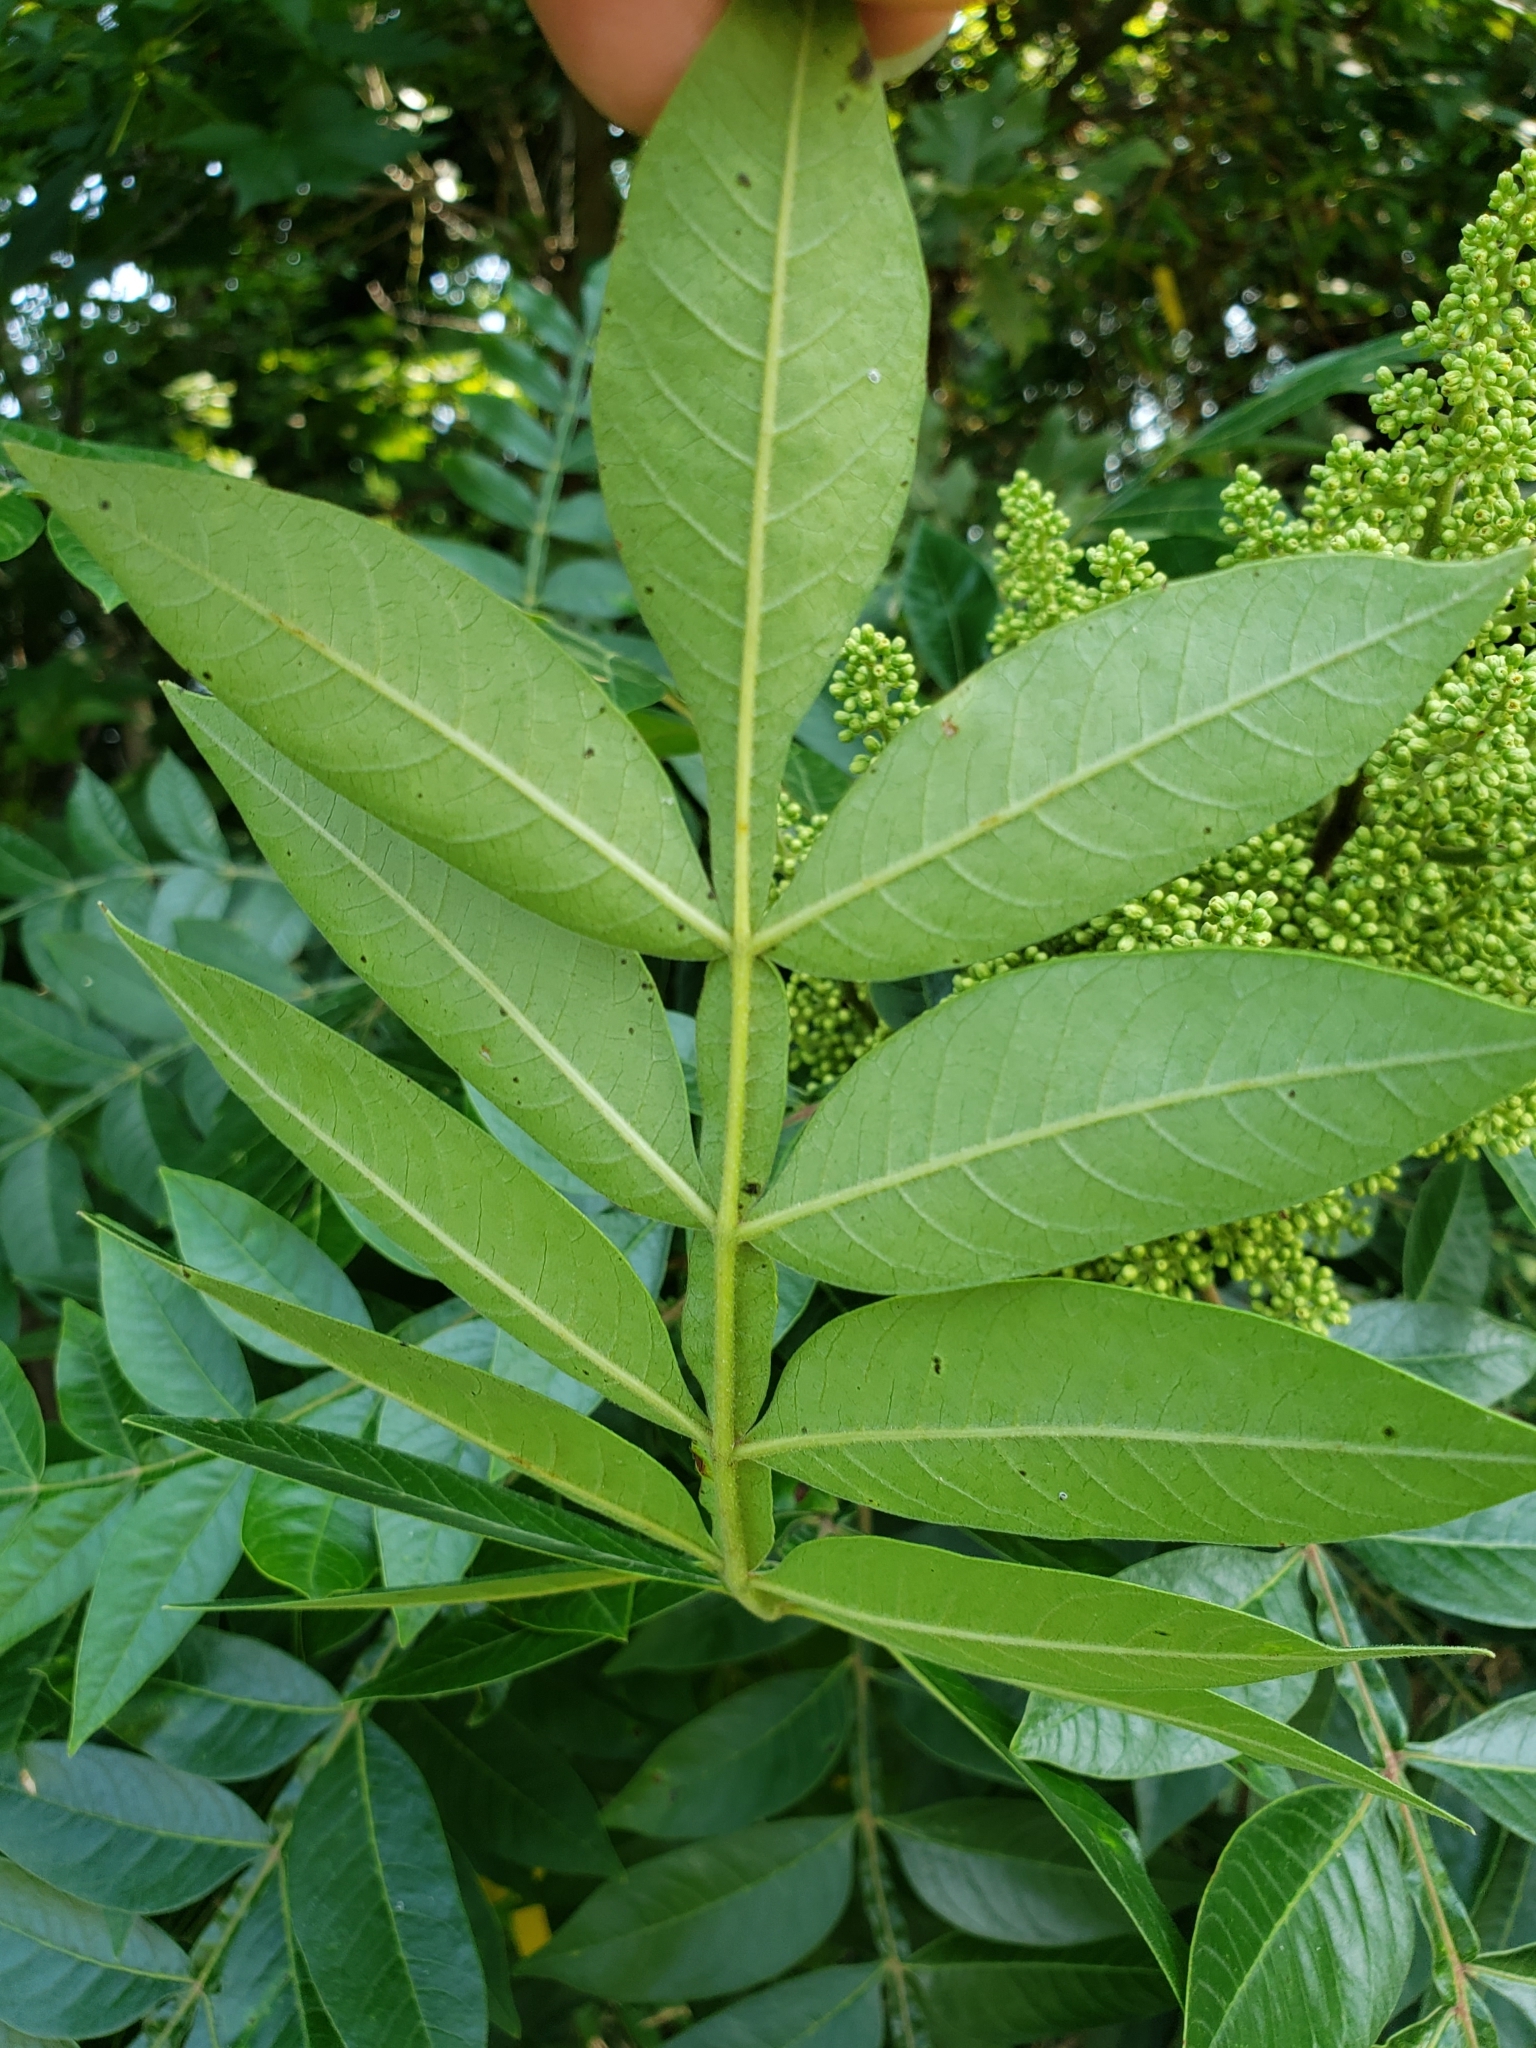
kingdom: Plantae
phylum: Tracheophyta
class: Magnoliopsida
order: Sapindales
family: Anacardiaceae
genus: Rhus
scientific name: Rhus copallina
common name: Shining sumac
